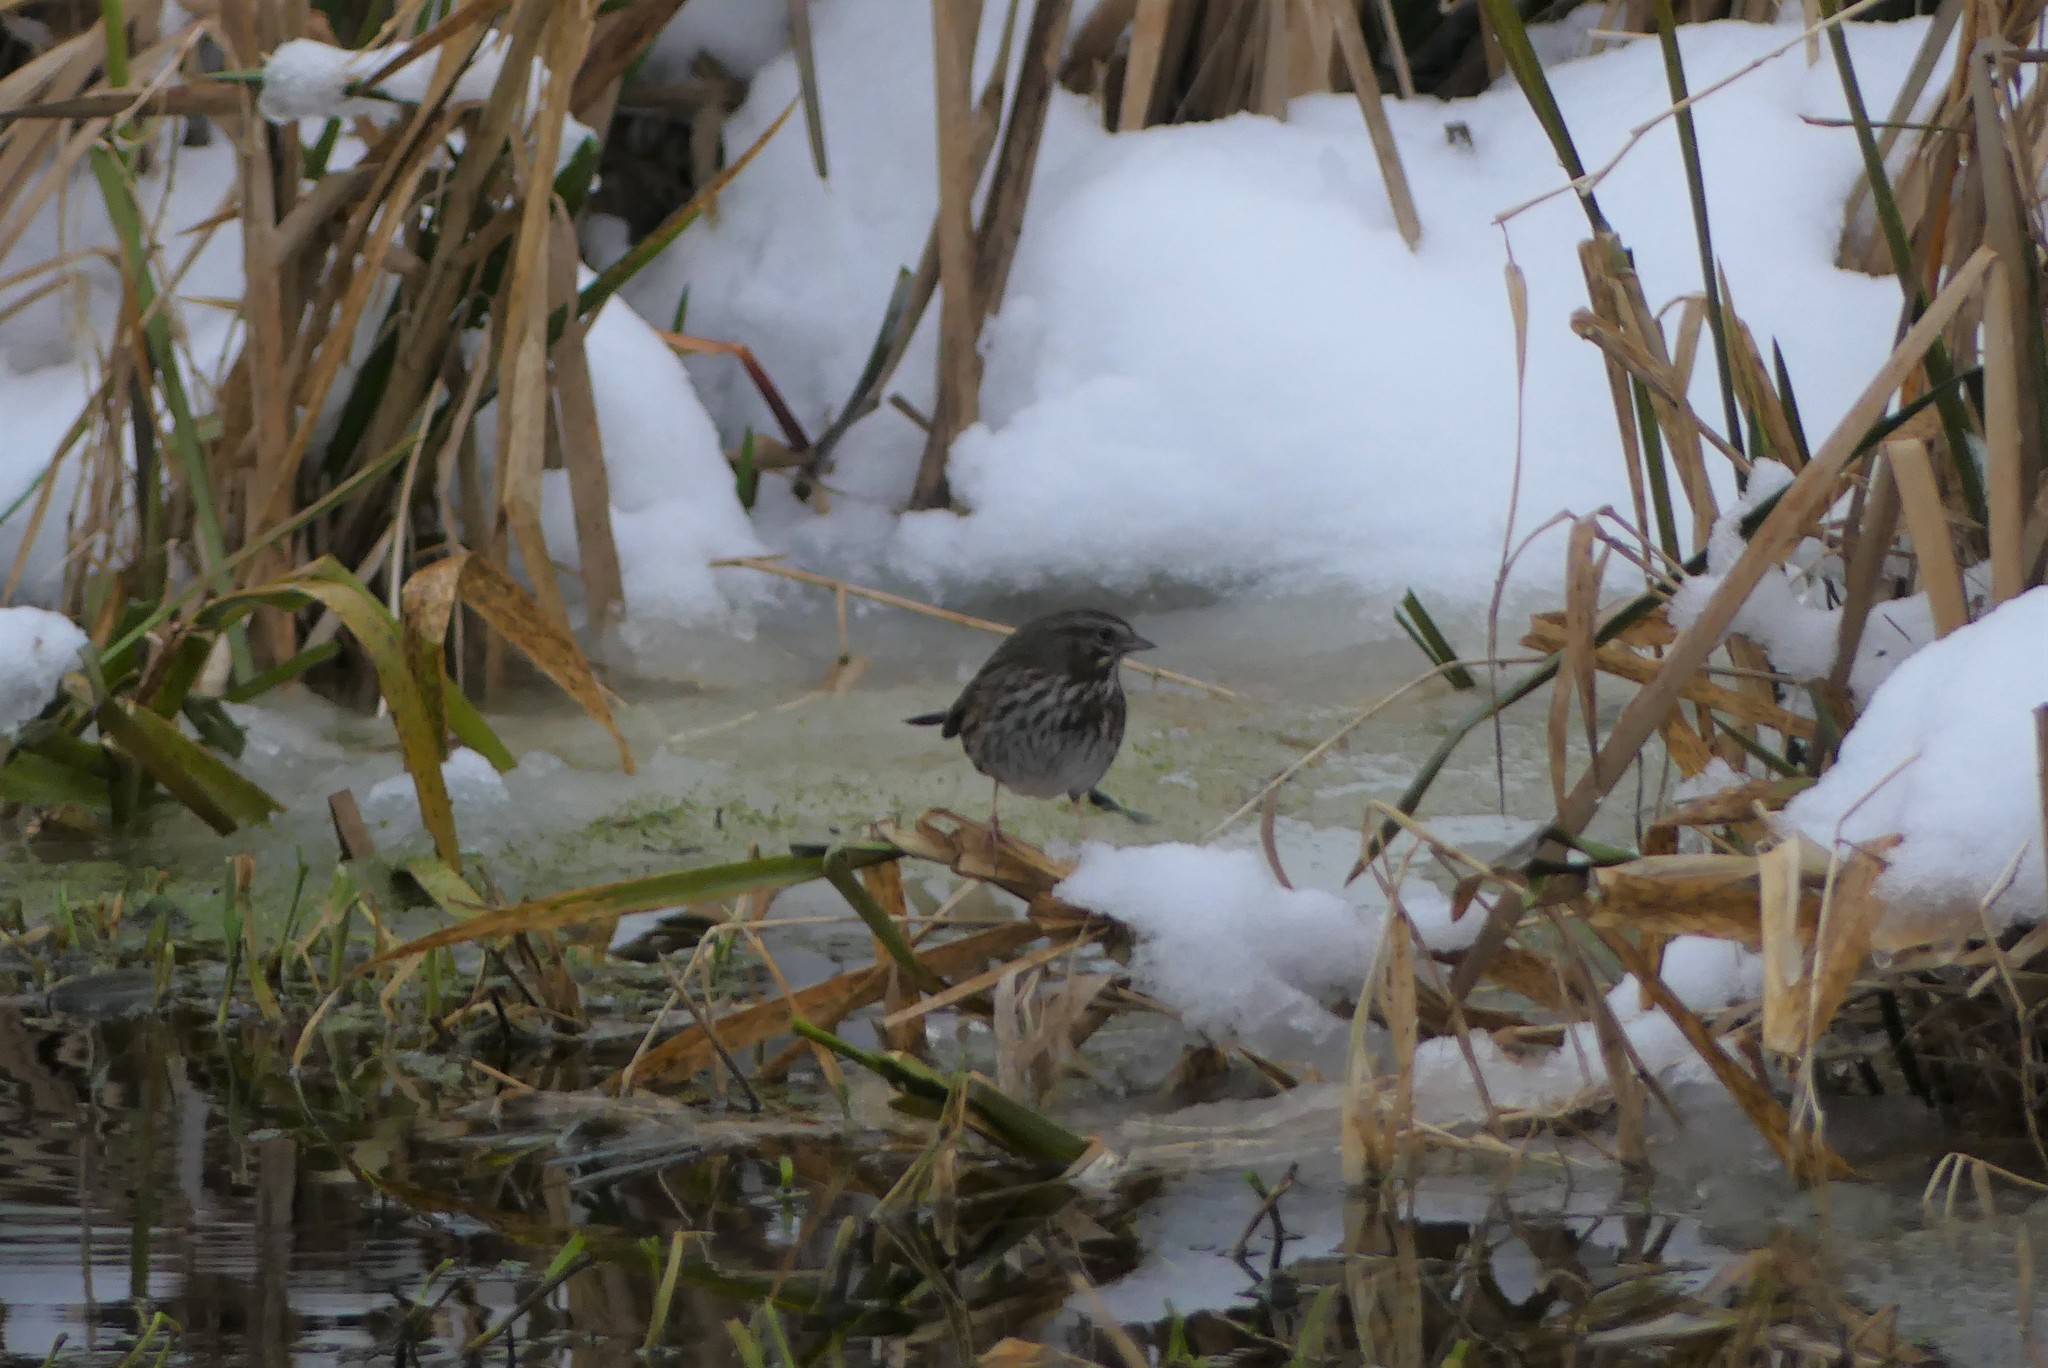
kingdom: Animalia
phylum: Chordata
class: Aves
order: Passeriformes
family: Passerellidae
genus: Melospiza
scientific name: Melospiza melodia
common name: Song sparrow
